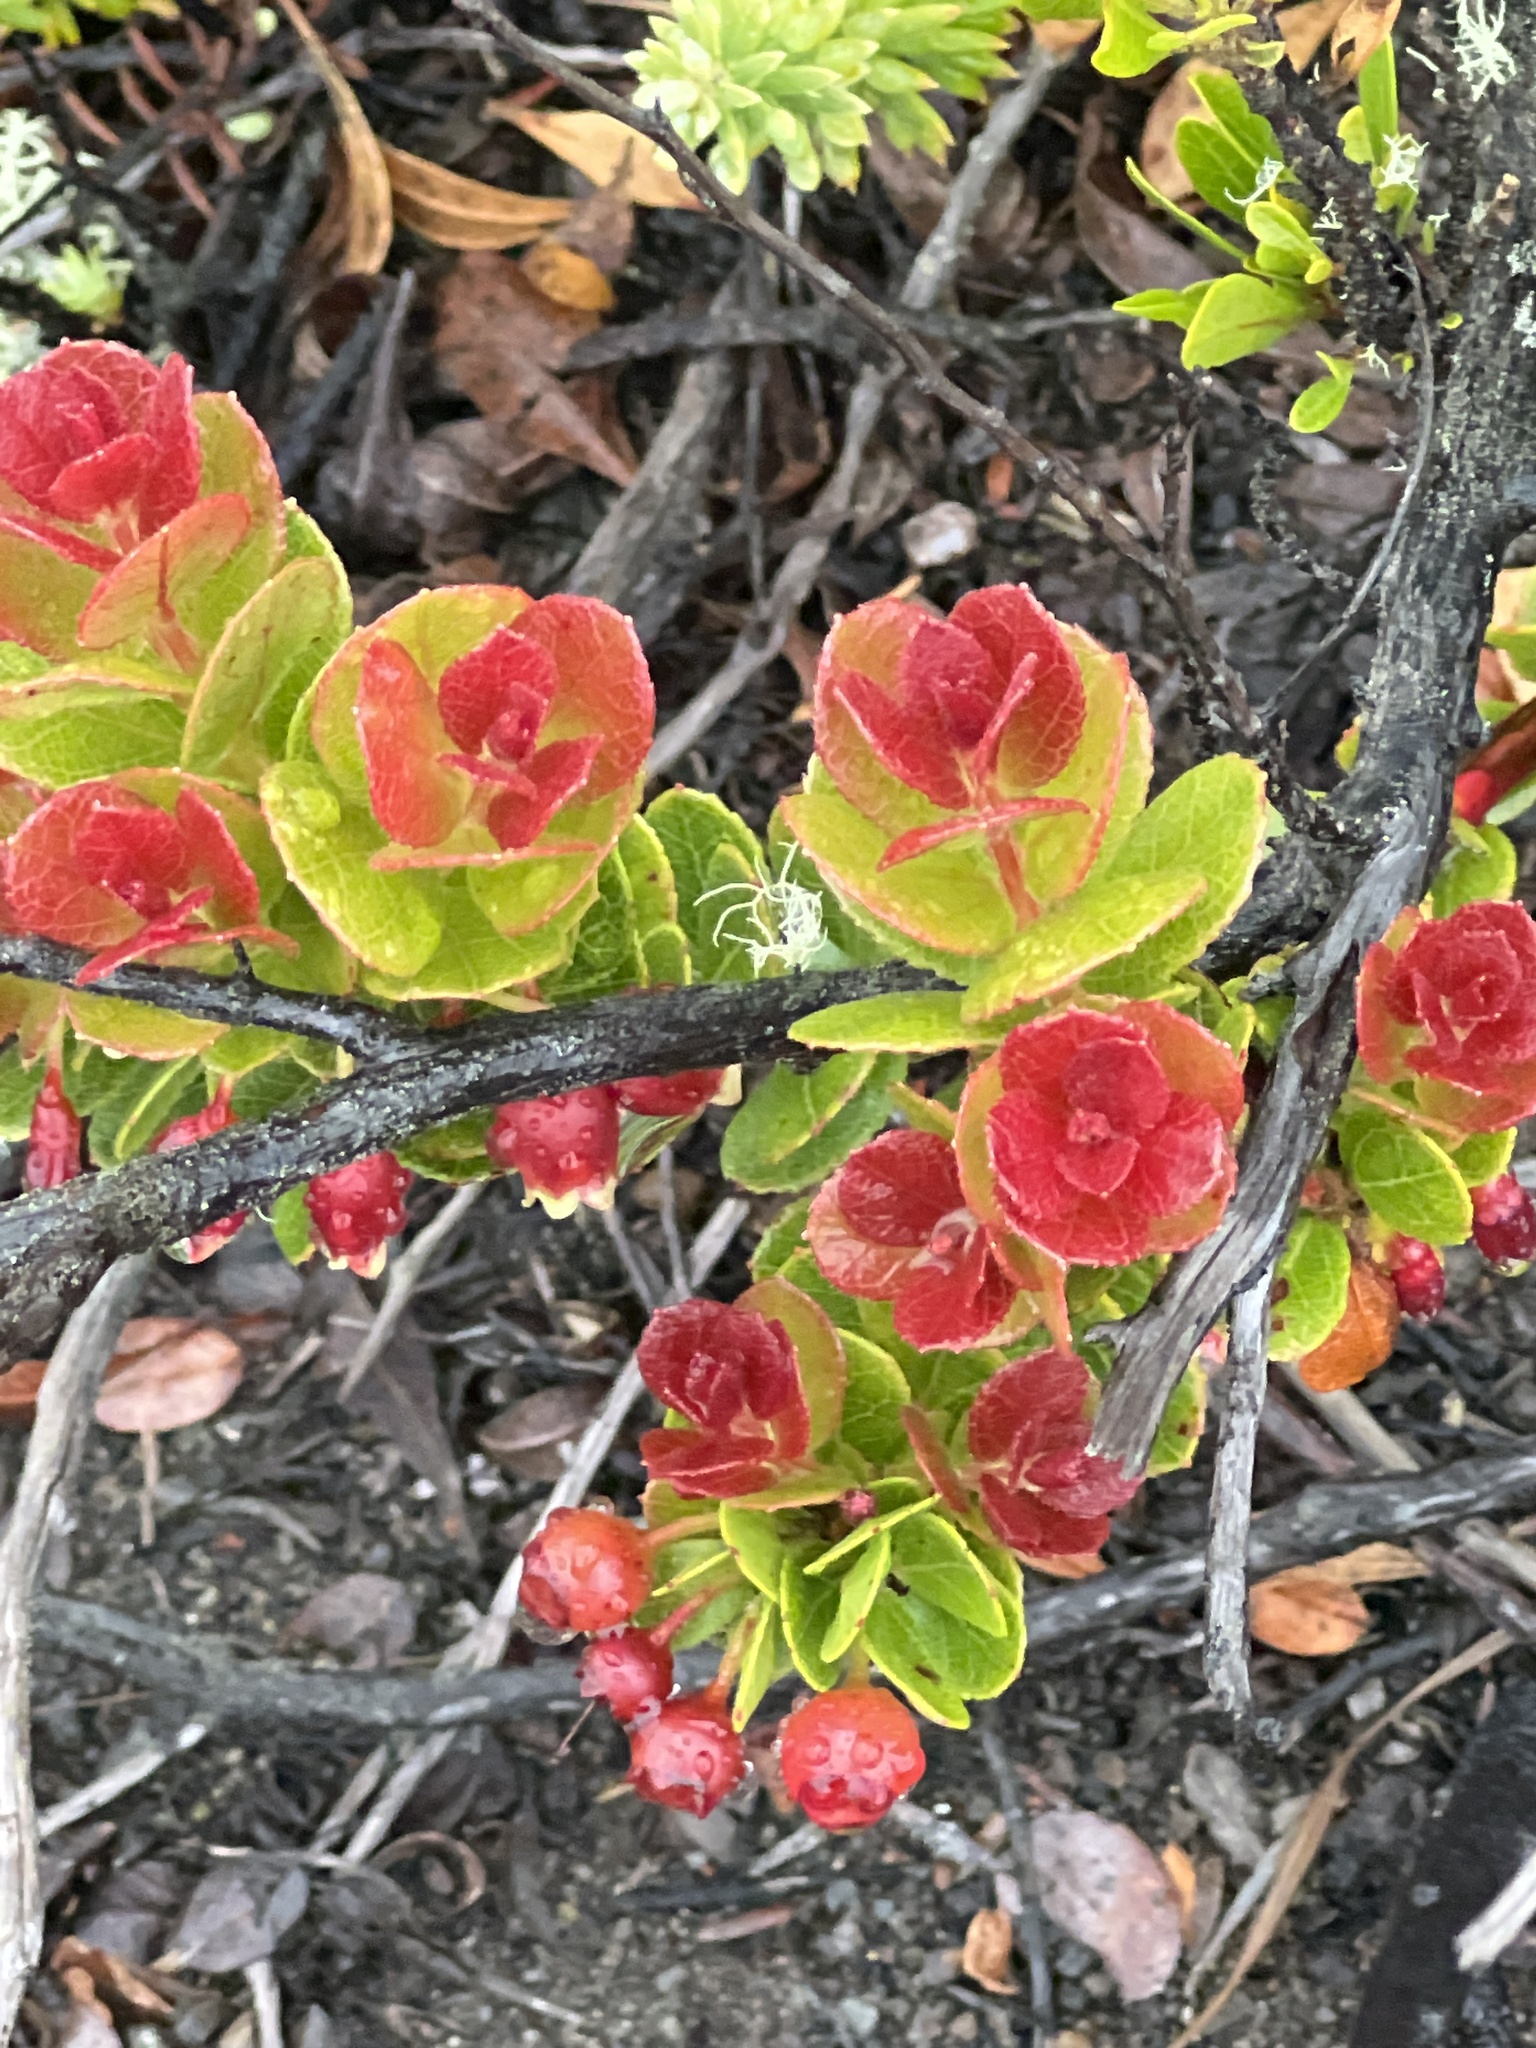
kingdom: Plantae
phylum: Tracheophyta
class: Magnoliopsida
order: Ericales
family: Ericaceae
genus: Vaccinium
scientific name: Vaccinium reticulatum
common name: Ohelo
